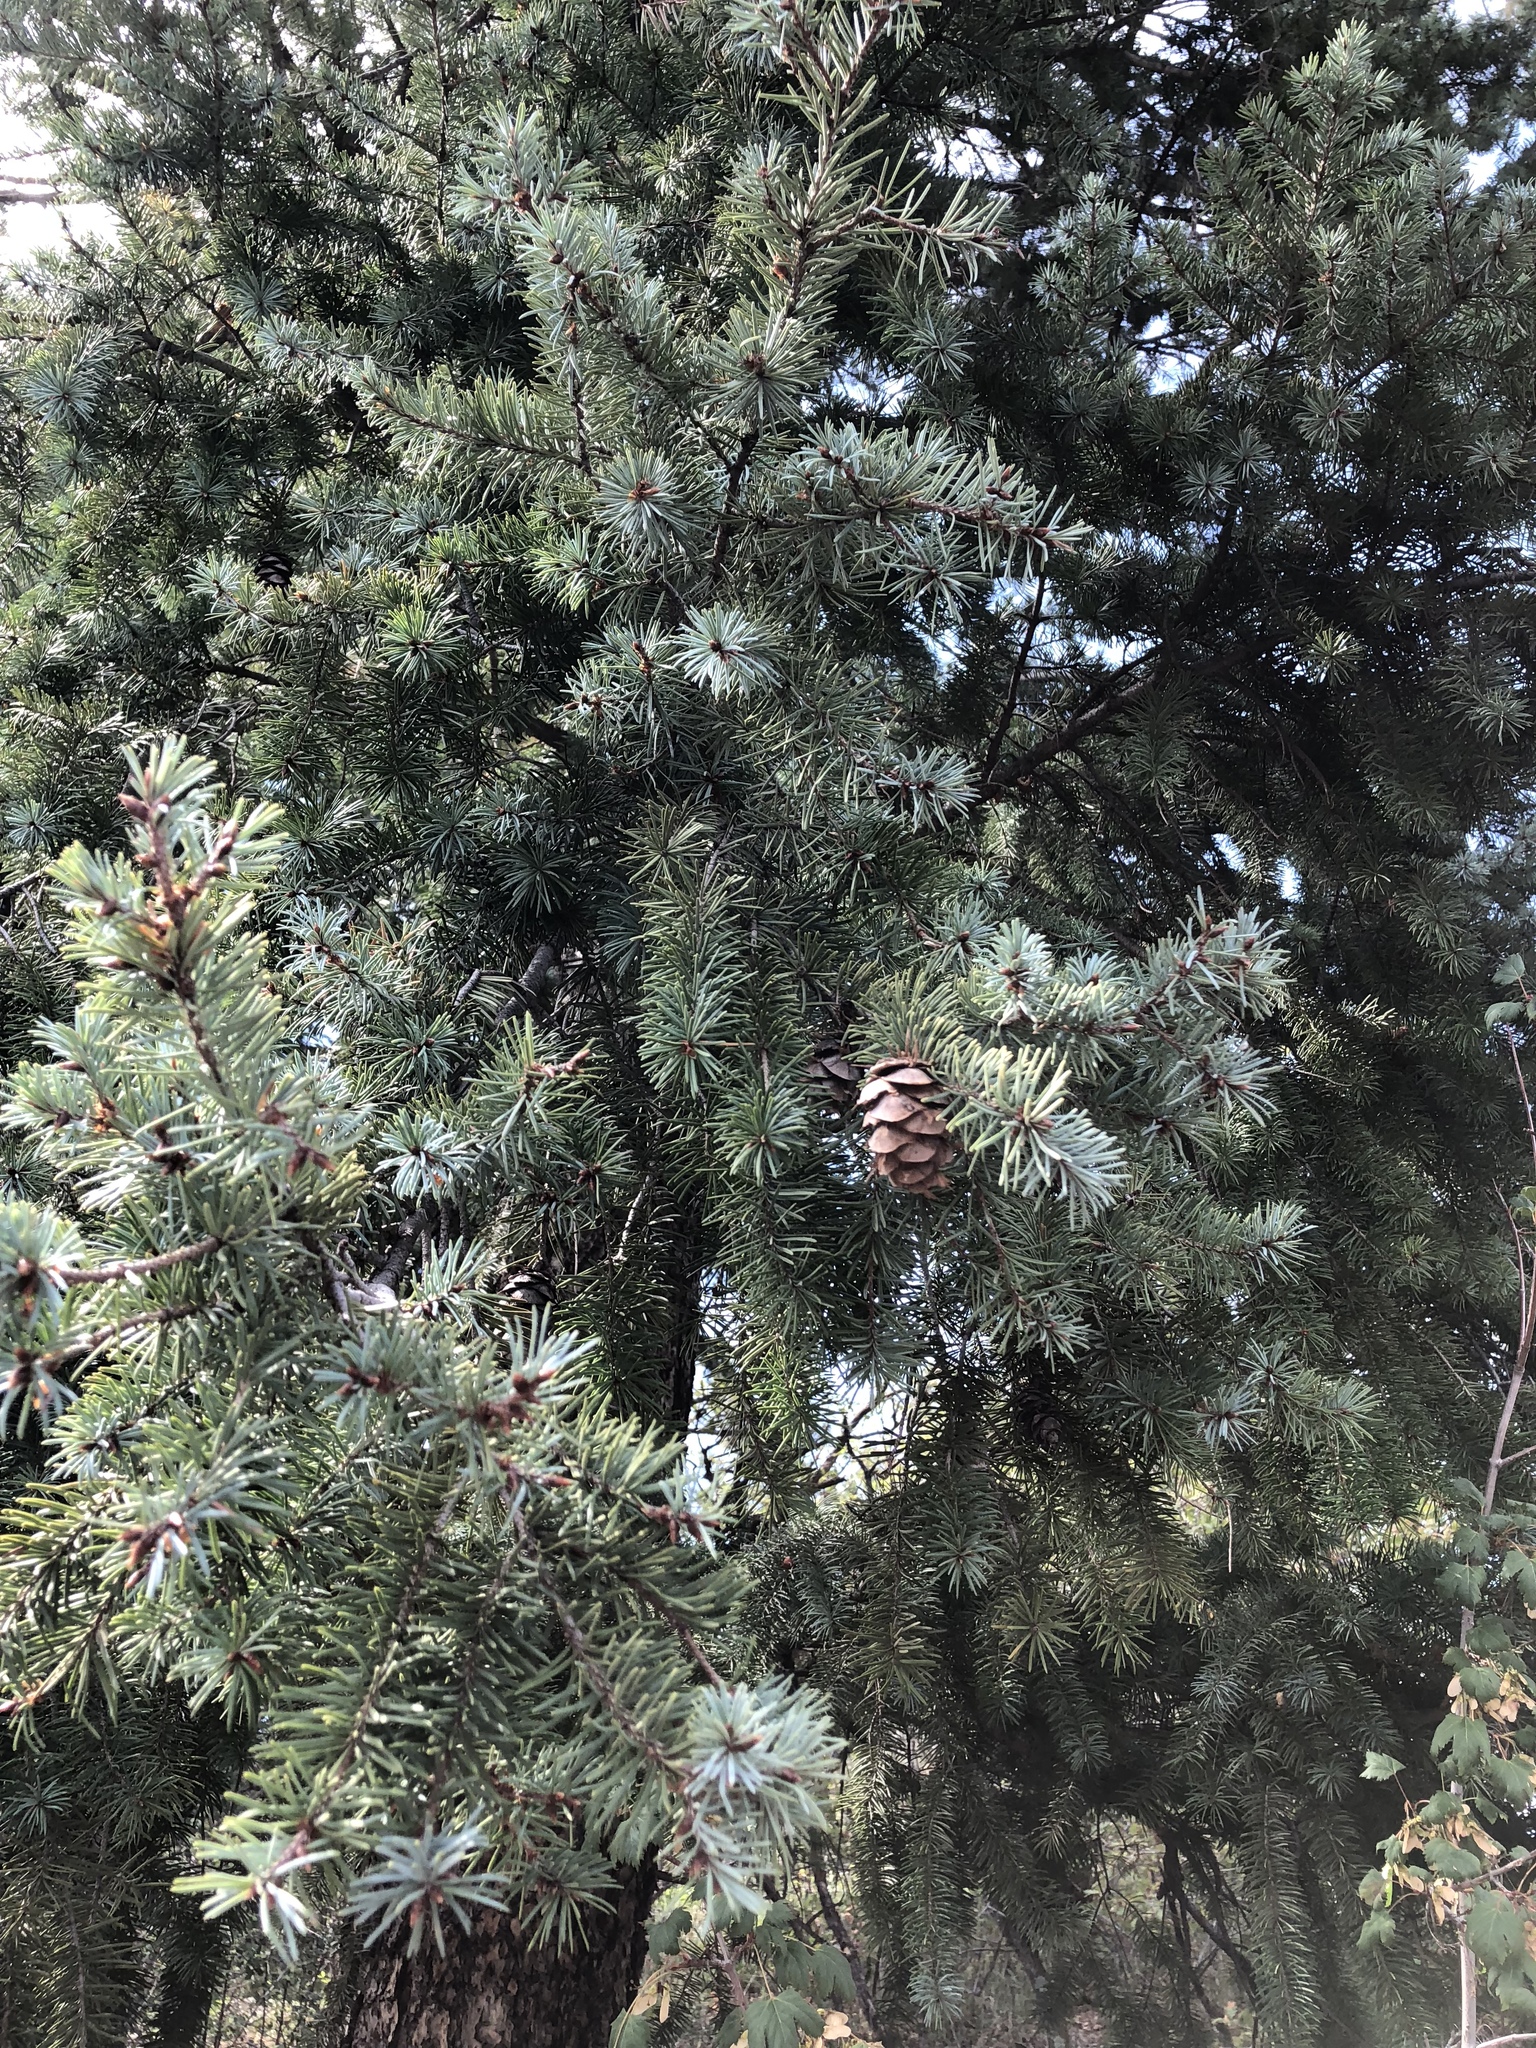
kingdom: Plantae
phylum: Tracheophyta
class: Pinopsida
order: Pinales
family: Pinaceae
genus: Pseudotsuga
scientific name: Pseudotsuga menziesii
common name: Douglas fir
